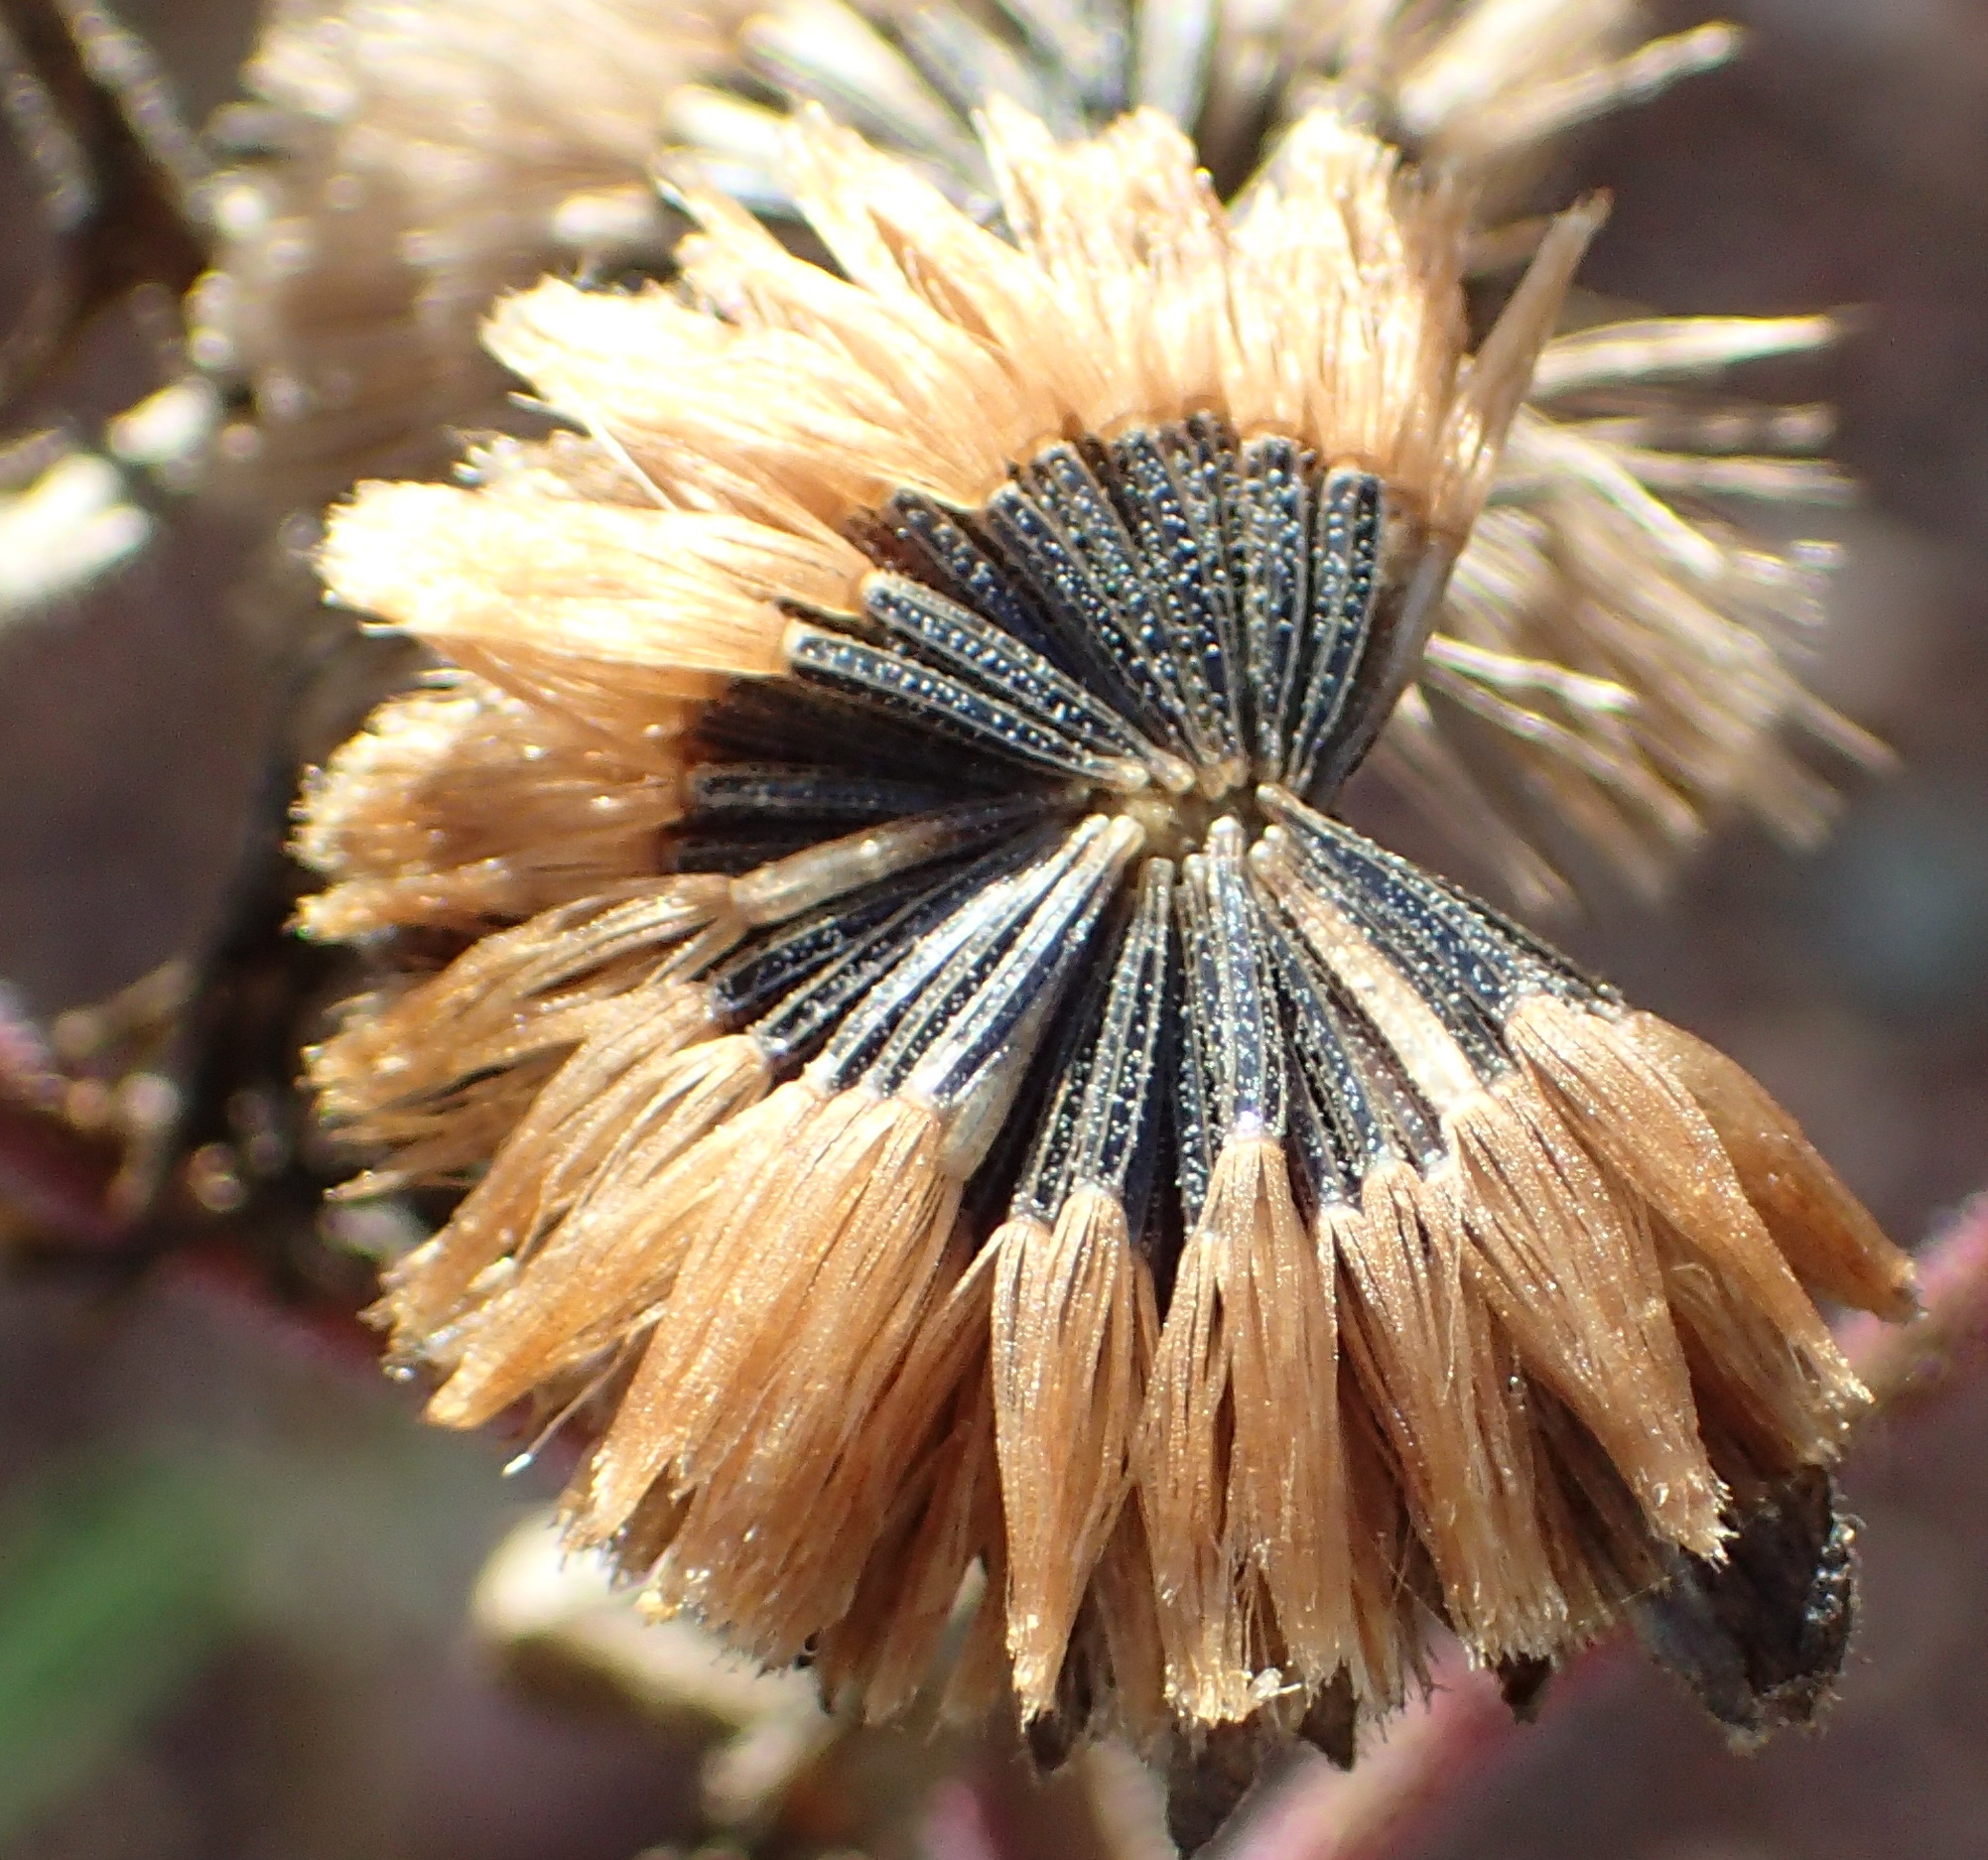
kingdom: Plantae
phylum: Tracheophyta
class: Magnoliopsida
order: Asterales
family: Asteraceae
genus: Campuloclinium
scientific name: Campuloclinium macrocephalum
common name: Pompomweed
